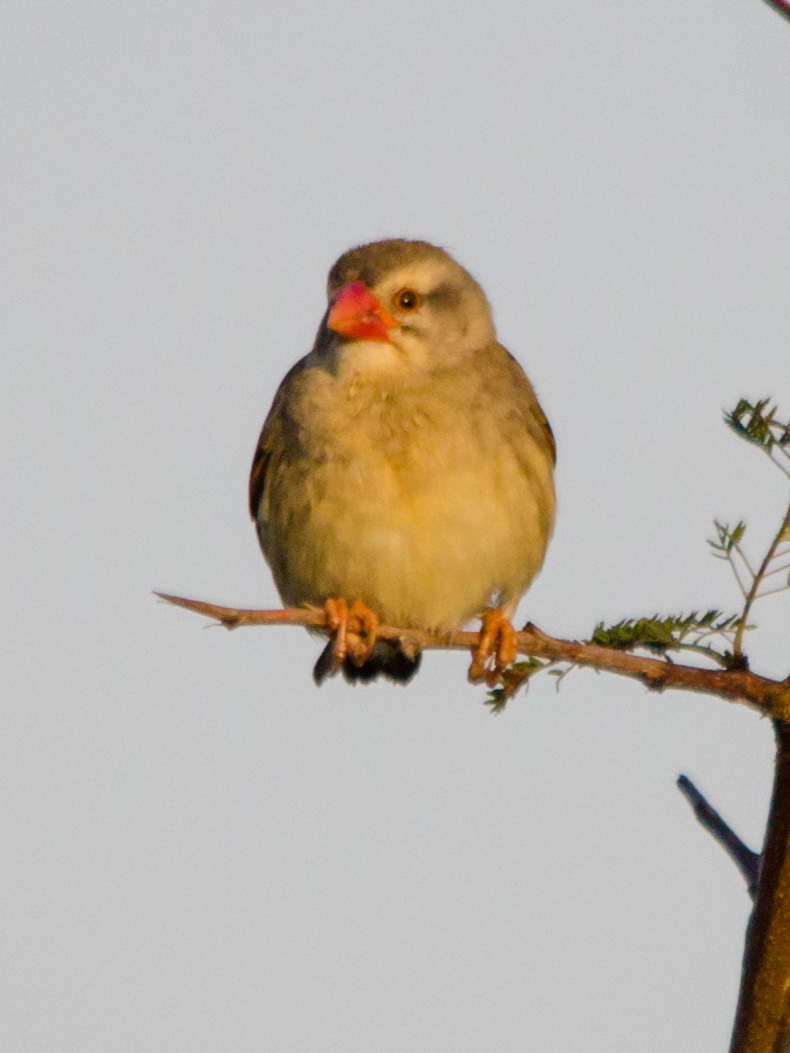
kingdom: Animalia
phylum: Chordata
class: Aves
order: Passeriformes
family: Ploceidae
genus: Quelea
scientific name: Quelea quelea
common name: Red-billed quelea
